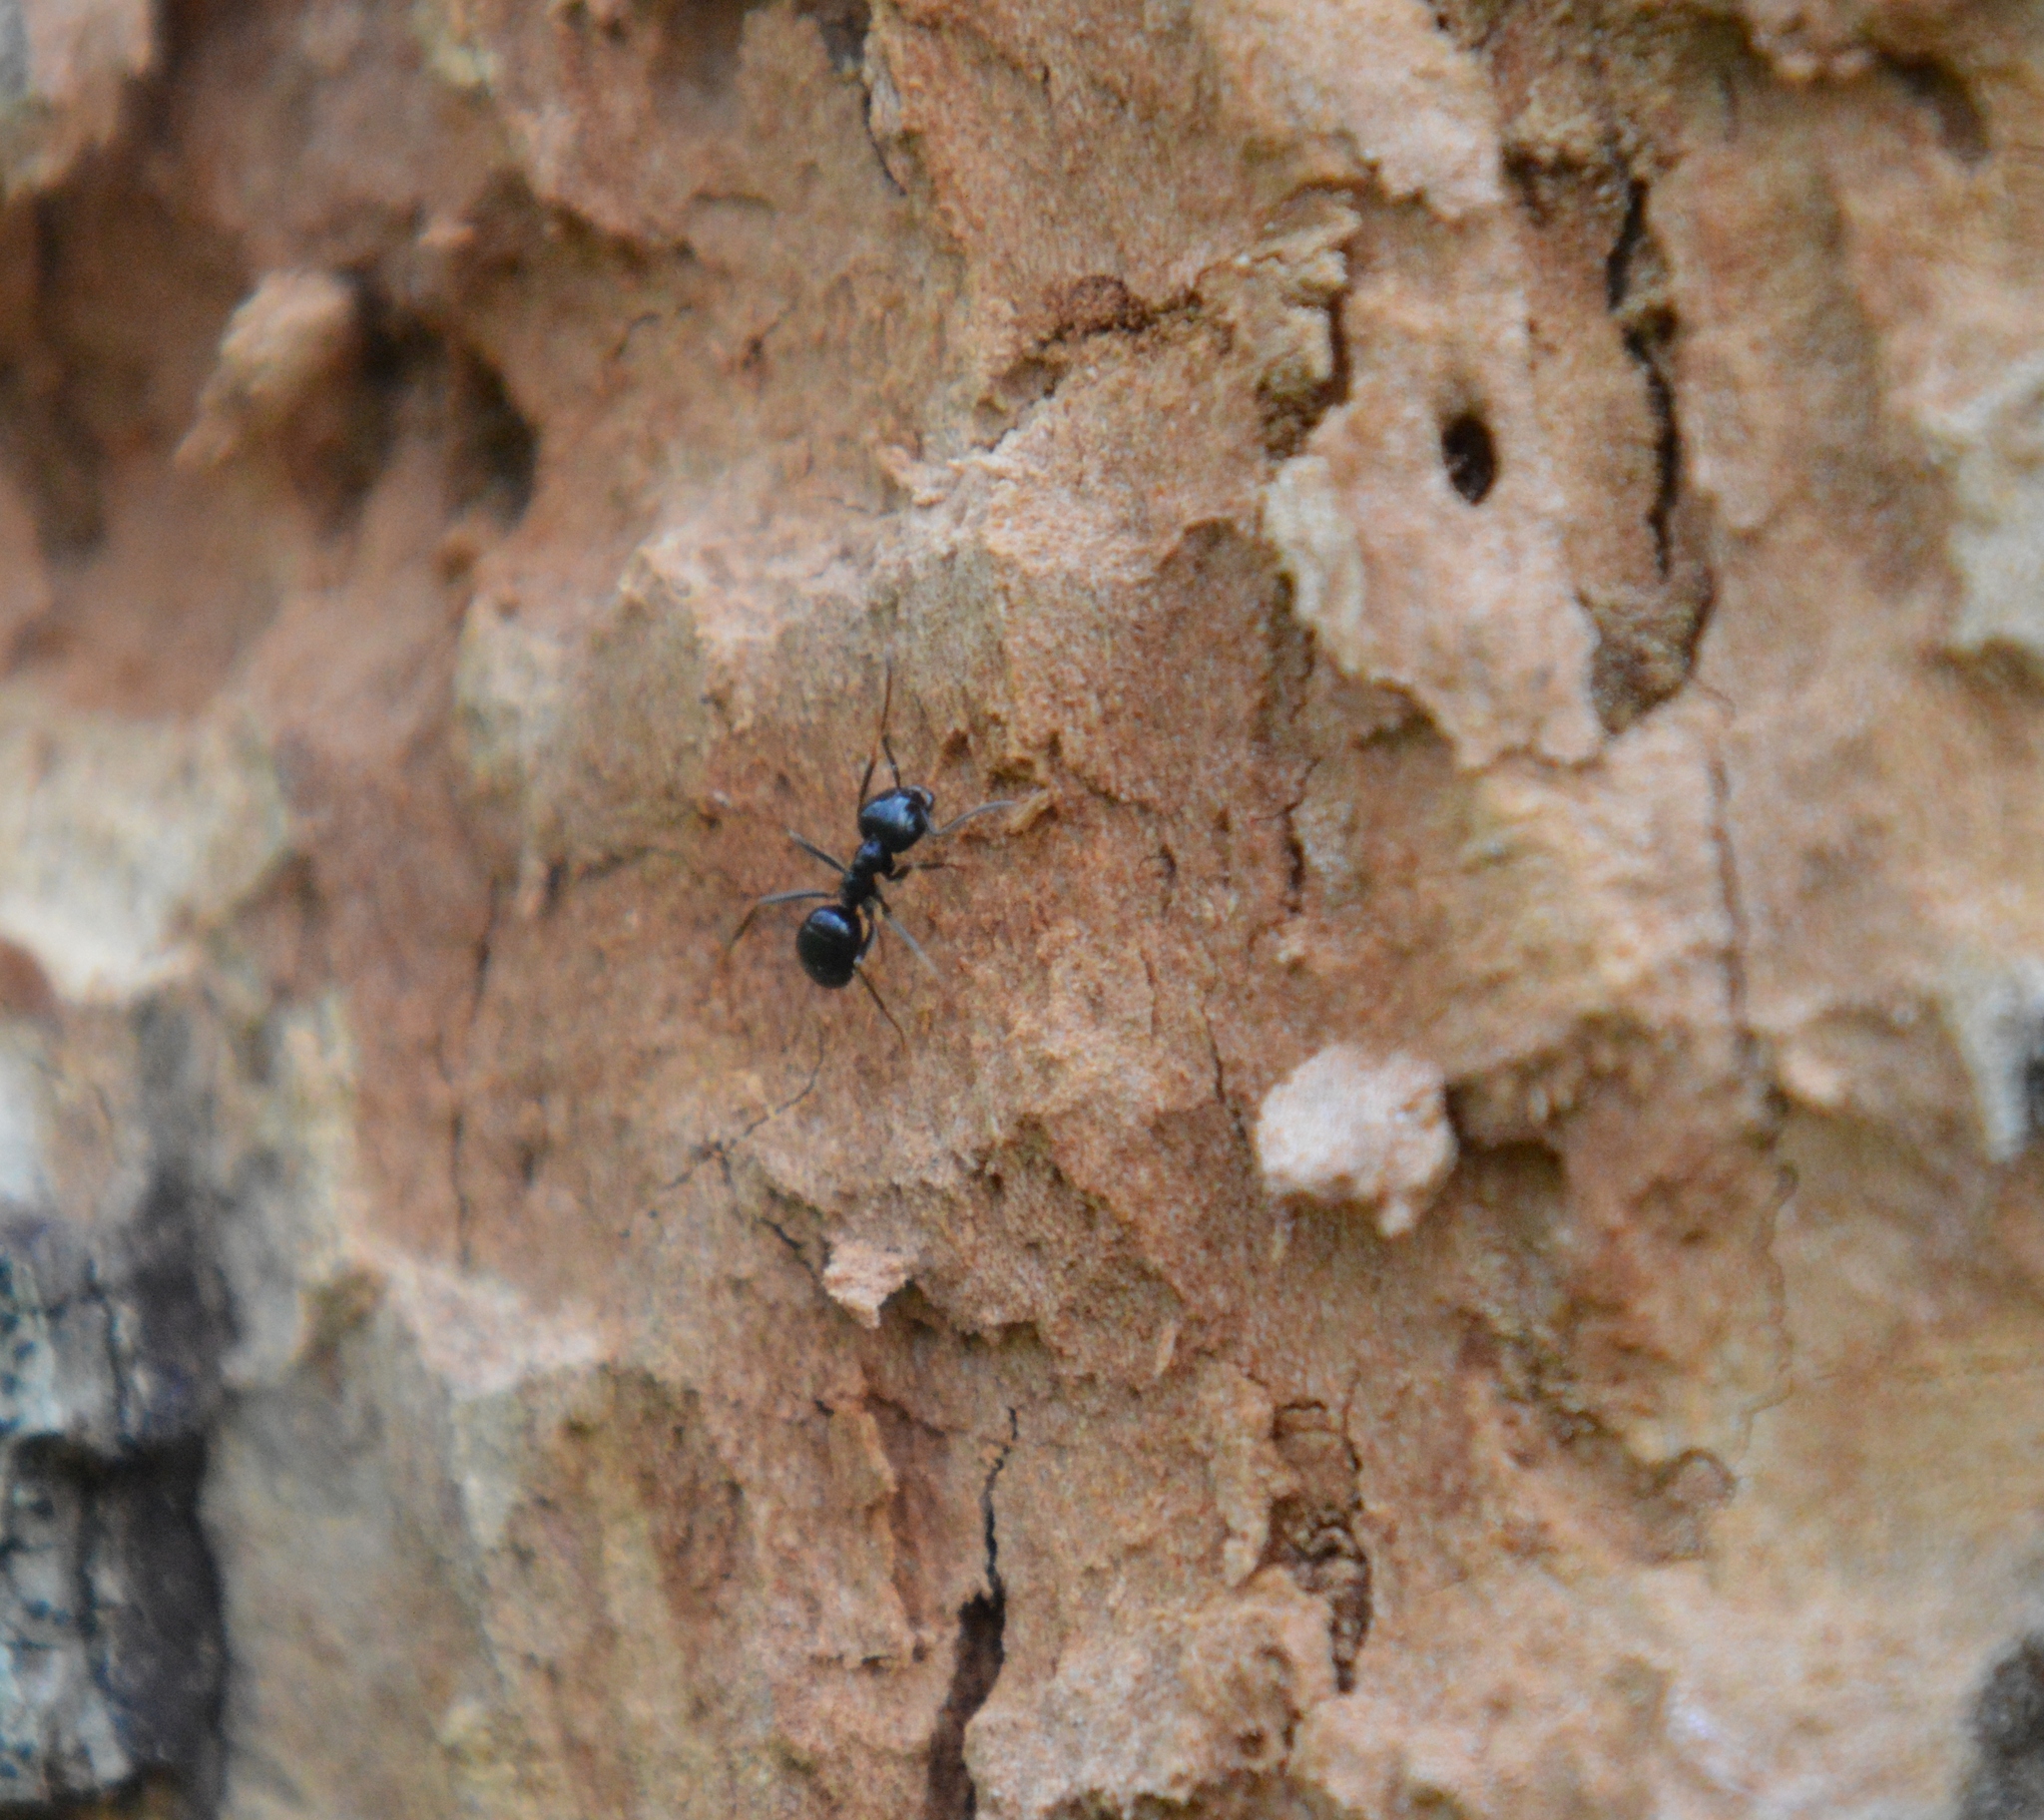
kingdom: Animalia
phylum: Arthropoda
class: Insecta
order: Hymenoptera
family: Formicidae
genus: Lasius
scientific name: Lasius fuliginosus
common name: Jet ant
